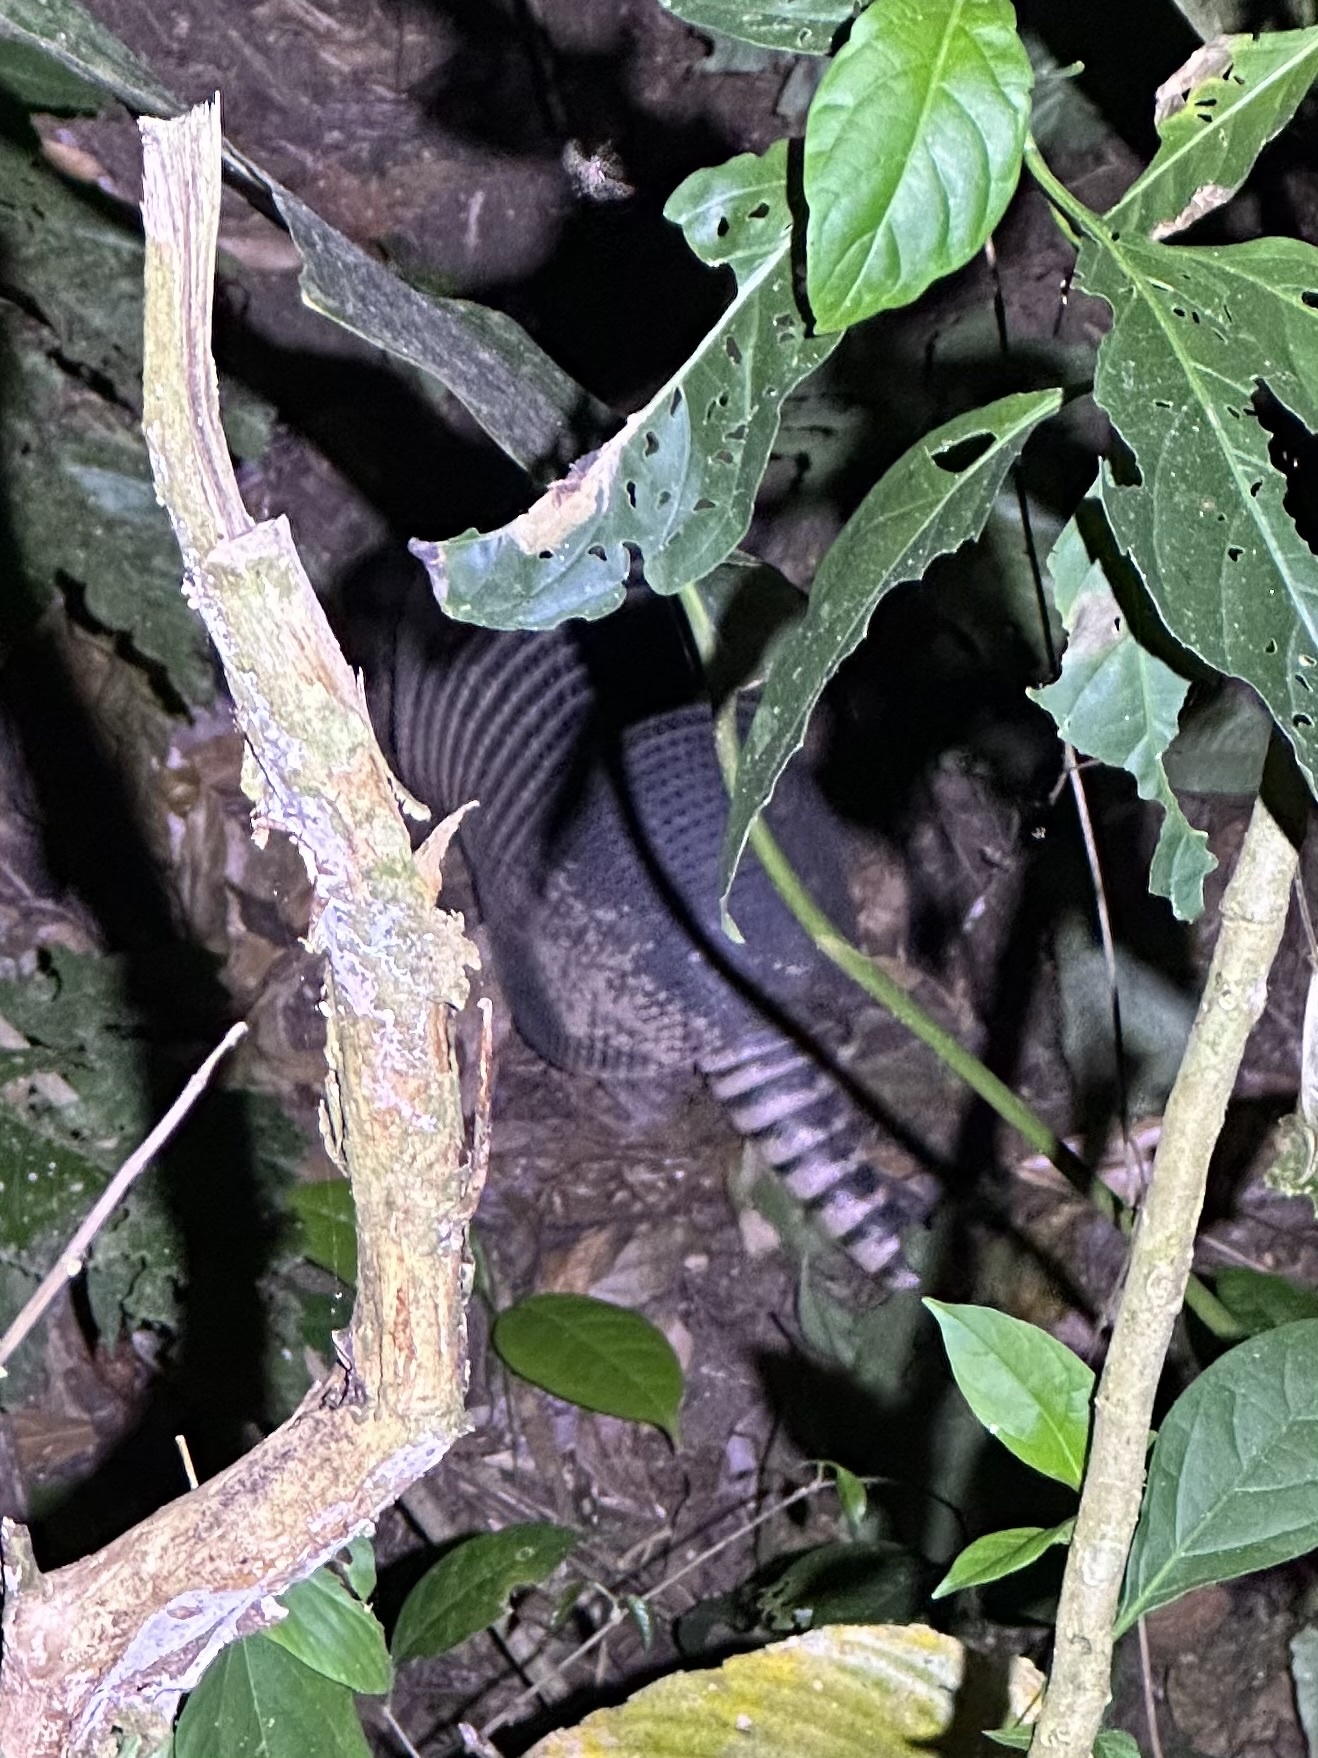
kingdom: Animalia
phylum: Chordata
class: Mammalia
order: Cingulata
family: Dasypodidae
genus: Dasypus
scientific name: Dasypus novemcinctus
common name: Nine-banded armadillo
